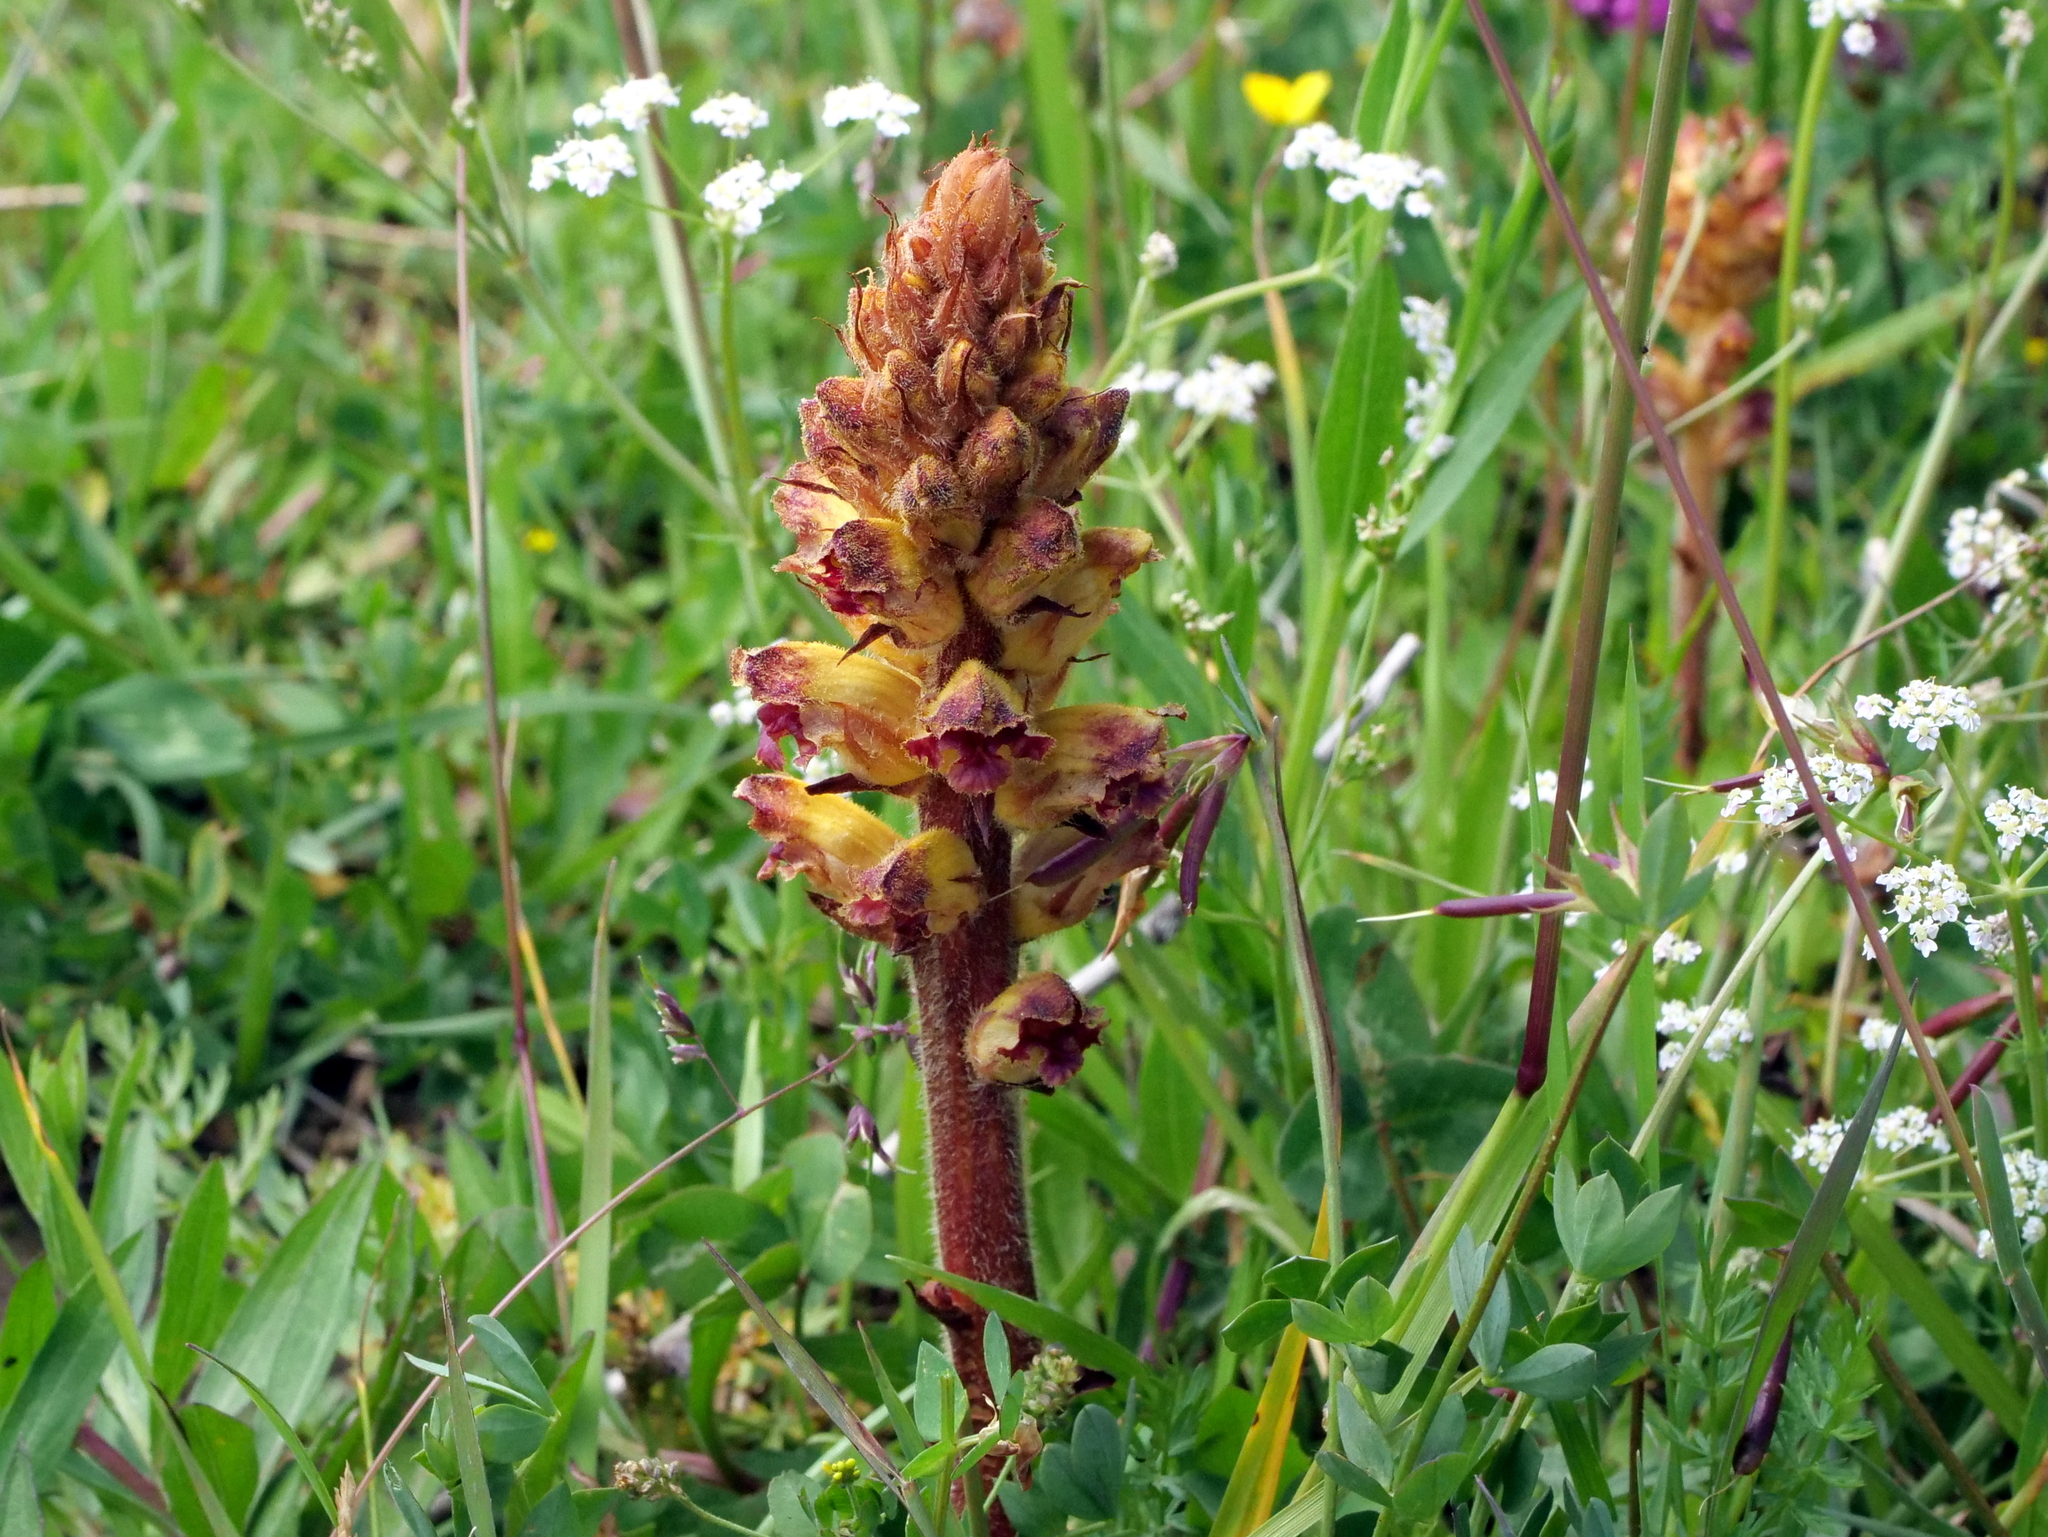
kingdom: Plantae
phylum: Tracheophyta
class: Magnoliopsida
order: Lamiales
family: Orobanchaceae
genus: Orobanche
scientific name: Orobanche gracilis
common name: Slender broomrape
